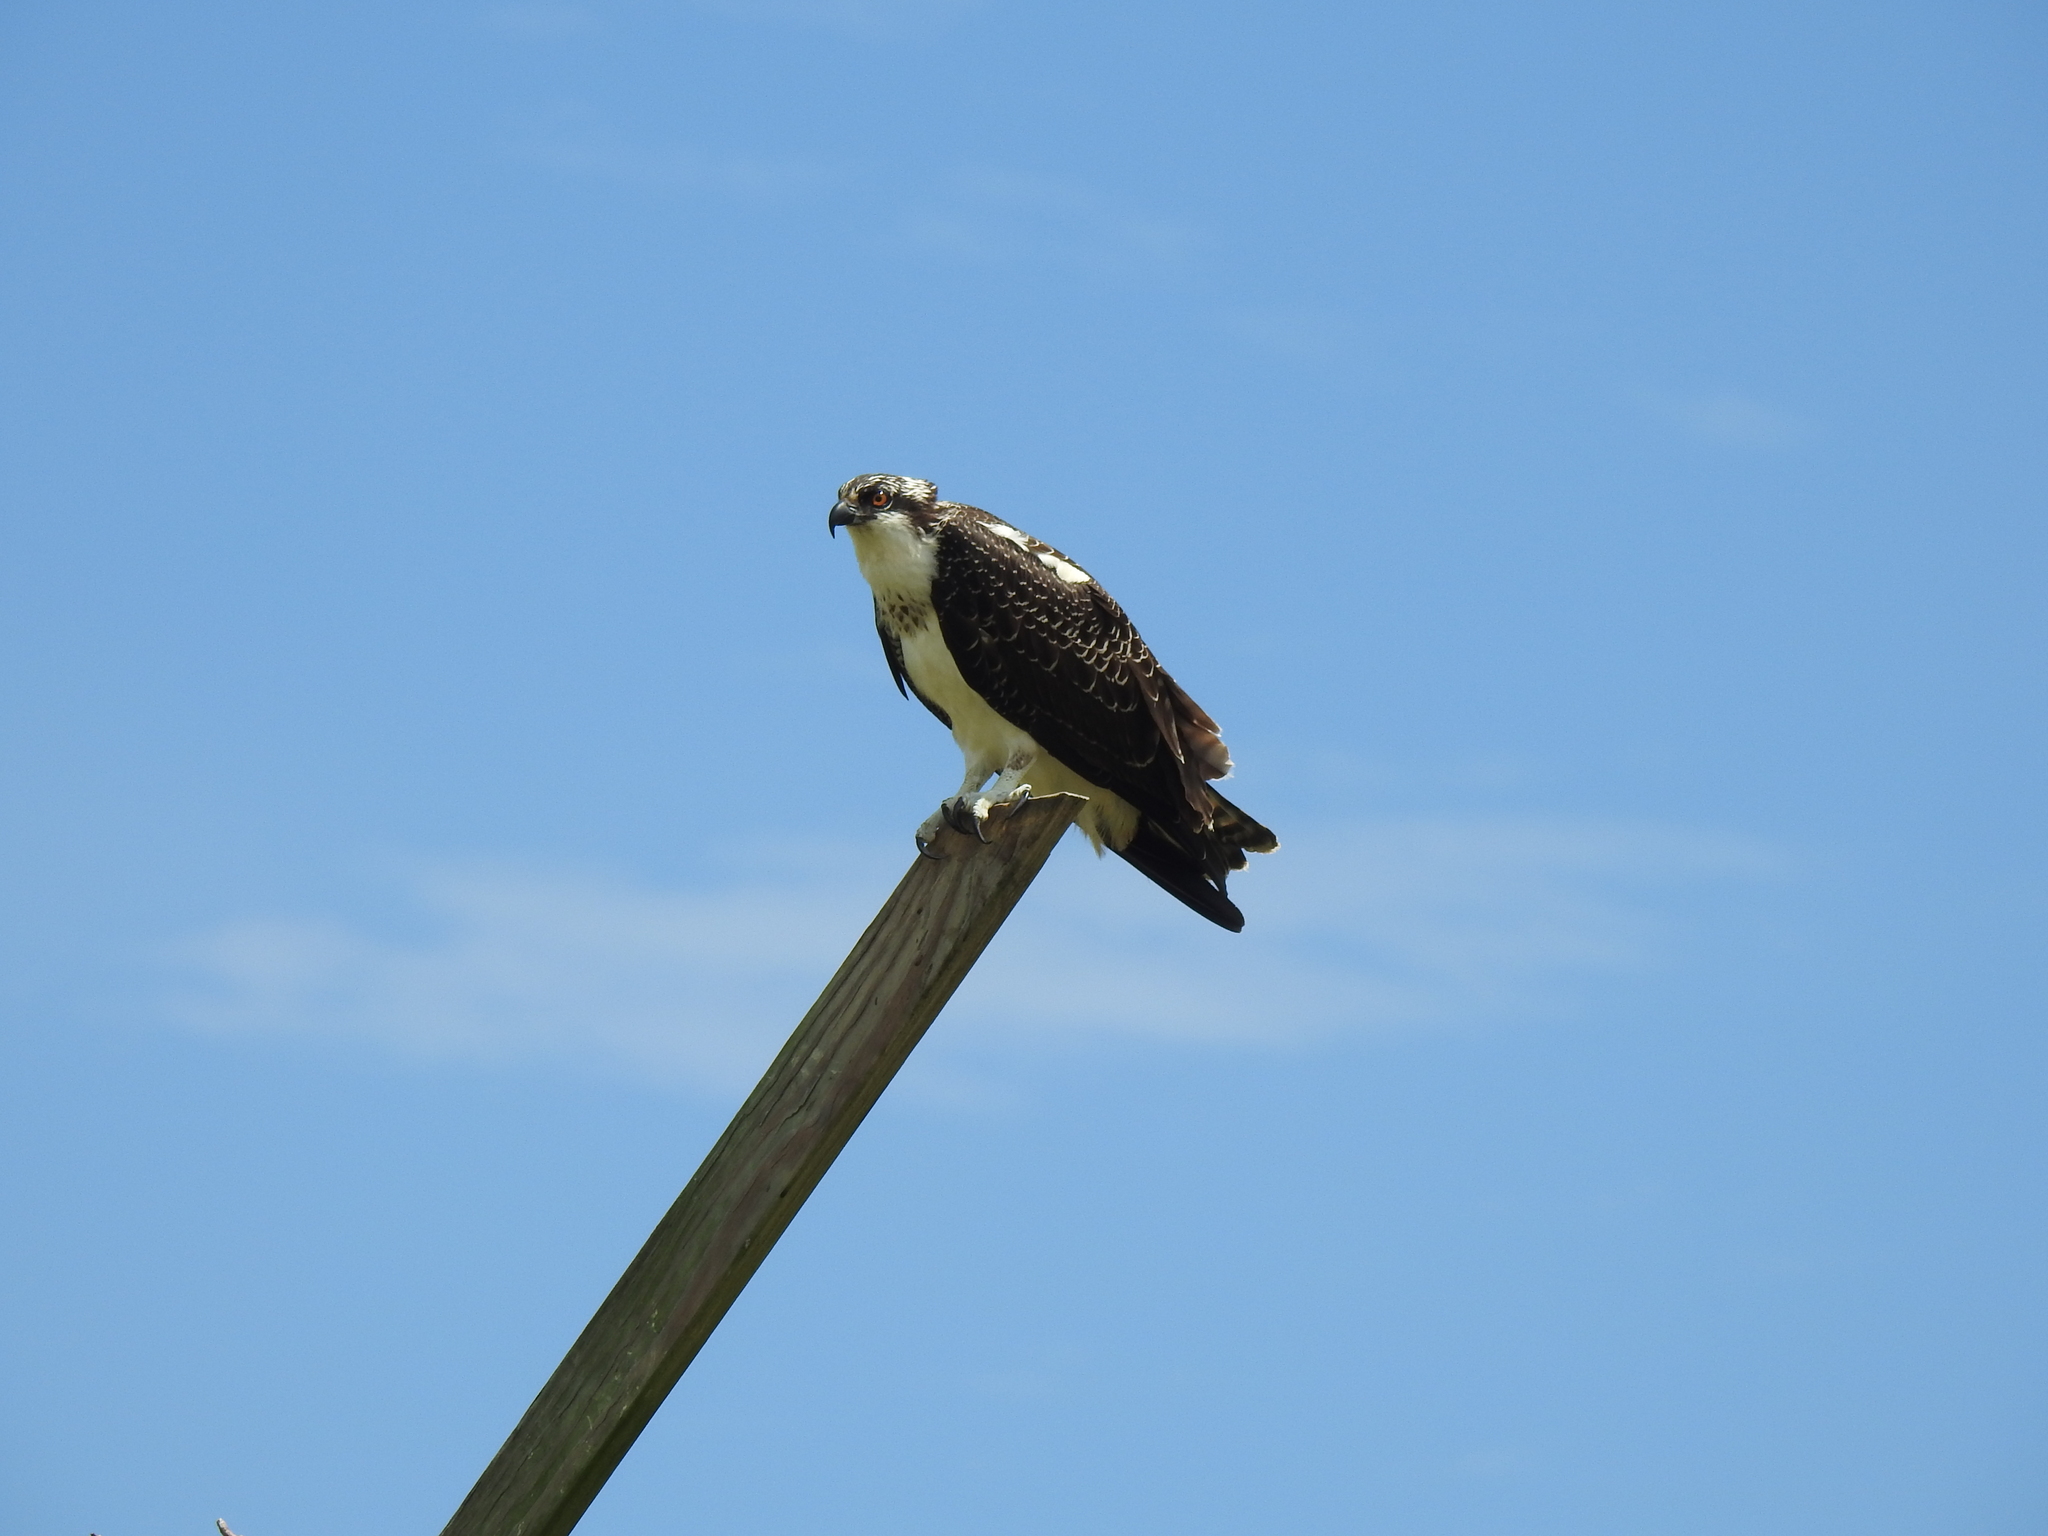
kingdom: Animalia
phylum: Chordata
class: Aves
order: Accipitriformes
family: Pandionidae
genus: Pandion
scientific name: Pandion haliaetus
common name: Osprey
